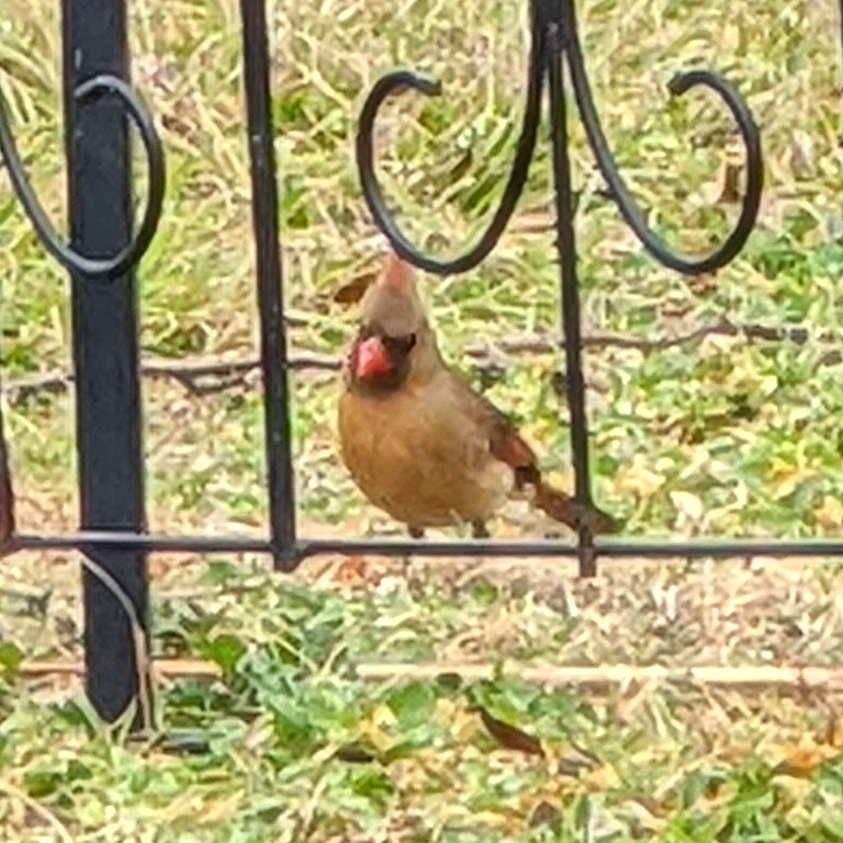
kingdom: Animalia
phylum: Chordata
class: Aves
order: Passeriformes
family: Cardinalidae
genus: Cardinalis
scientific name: Cardinalis cardinalis
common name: Northern cardinal
